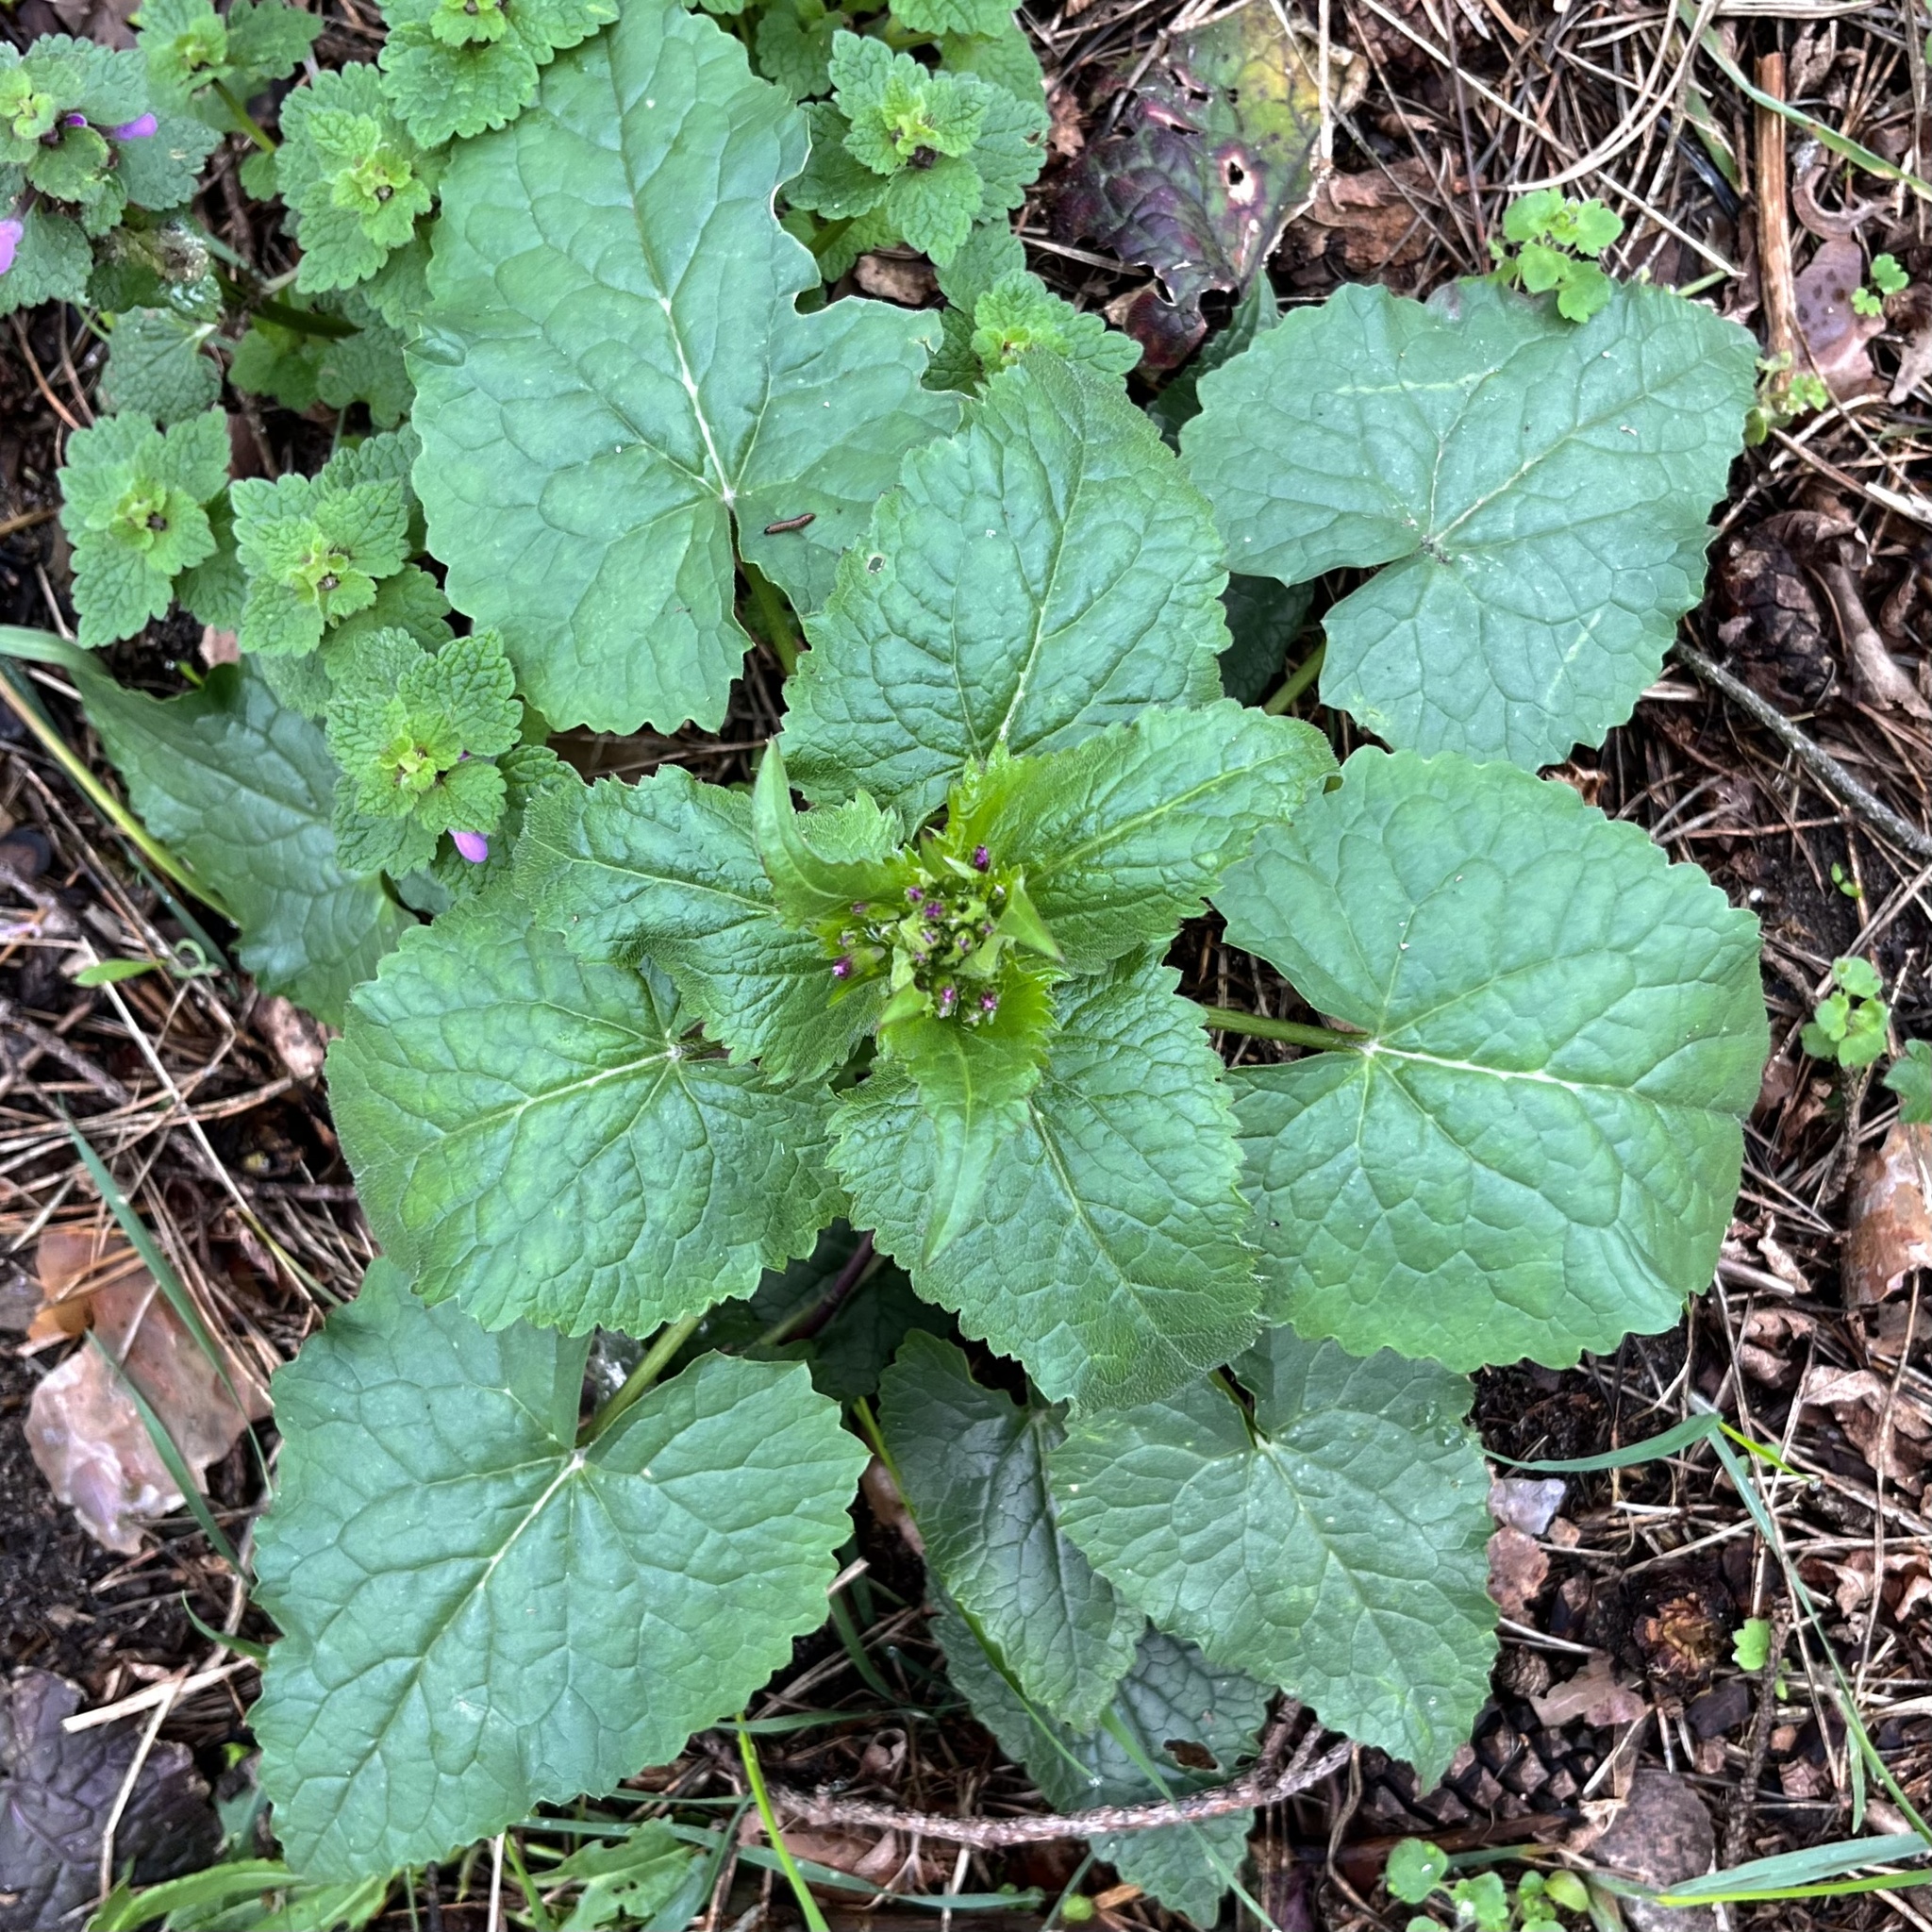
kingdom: Plantae
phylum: Tracheophyta
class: Magnoliopsida
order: Brassicales
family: Brassicaceae
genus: Lunaria
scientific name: Lunaria annua
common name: Honesty
